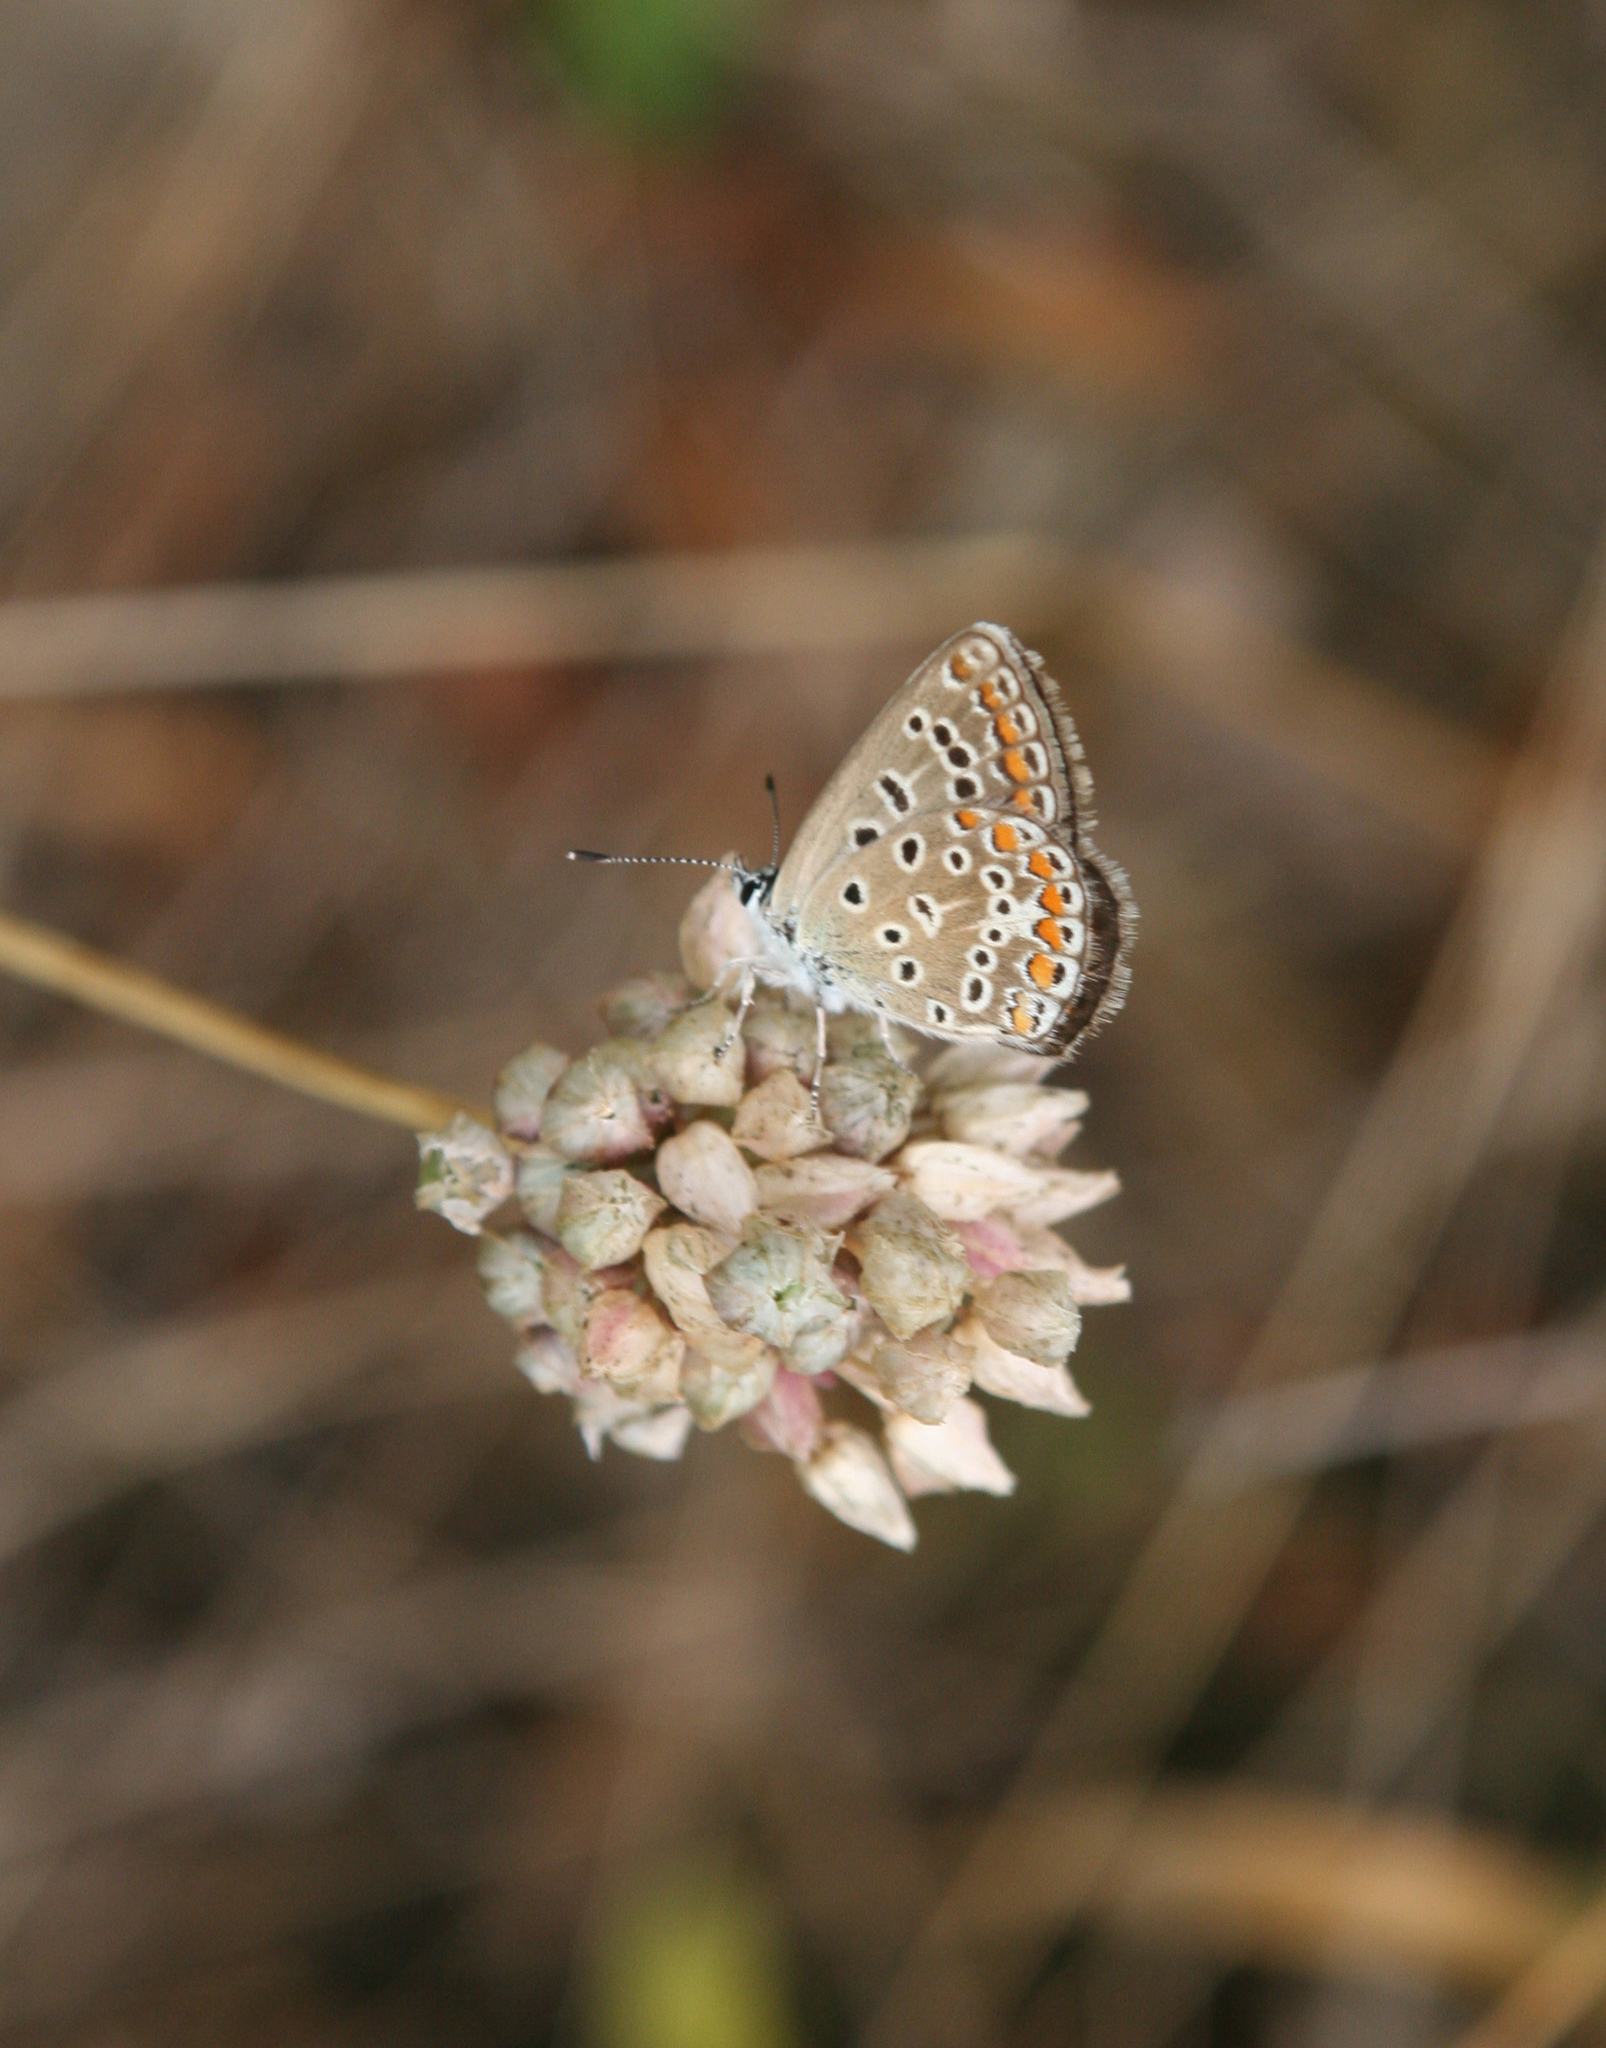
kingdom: Animalia
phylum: Arthropoda
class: Insecta
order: Lepidoptera
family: Lycaenidae
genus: Polyommatus
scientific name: Polyommatus icarus
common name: Common blue
